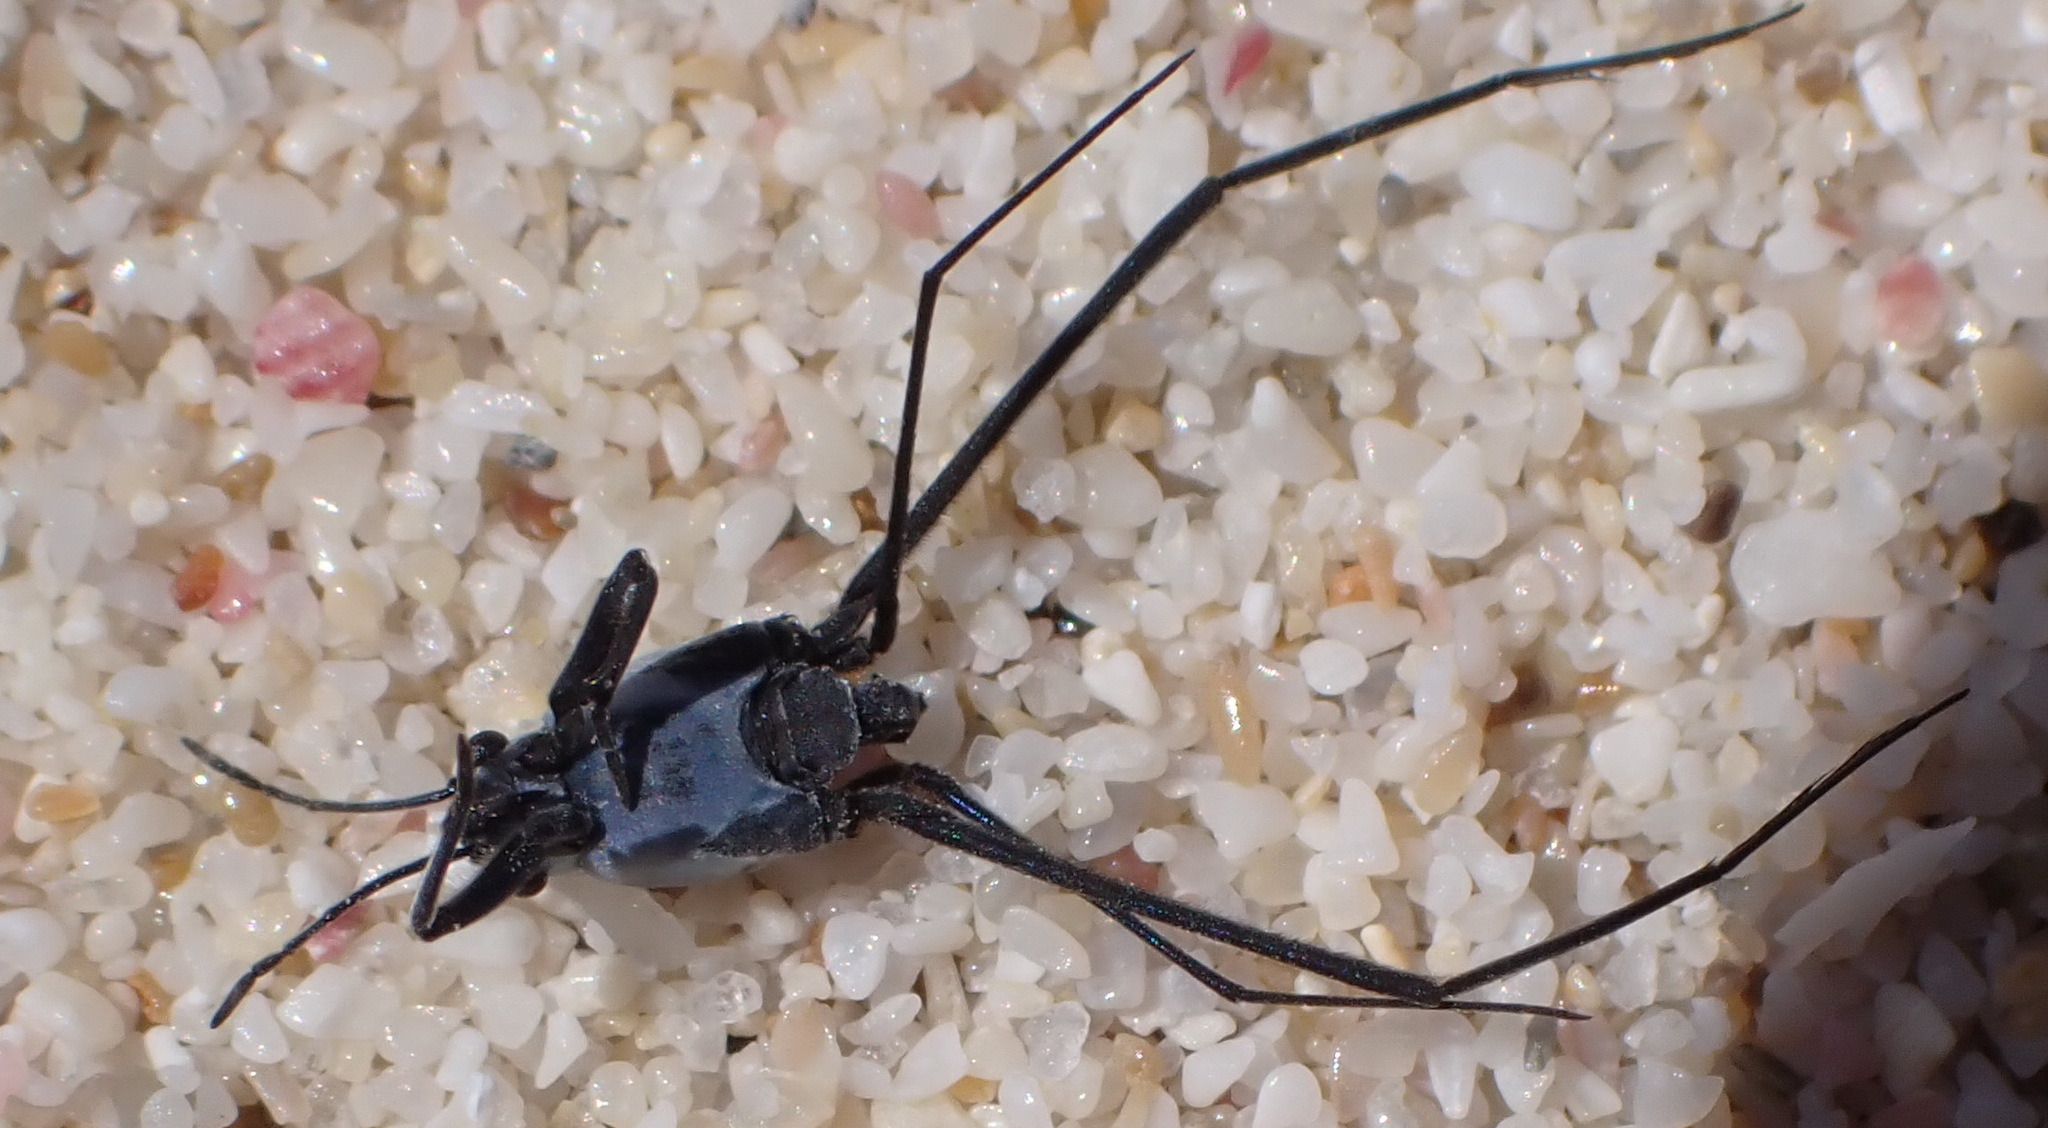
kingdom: Animalia
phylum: Arthropoda
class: Insecta
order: Hemiptera
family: Gerridae
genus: Halobates
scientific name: Halobates micans
